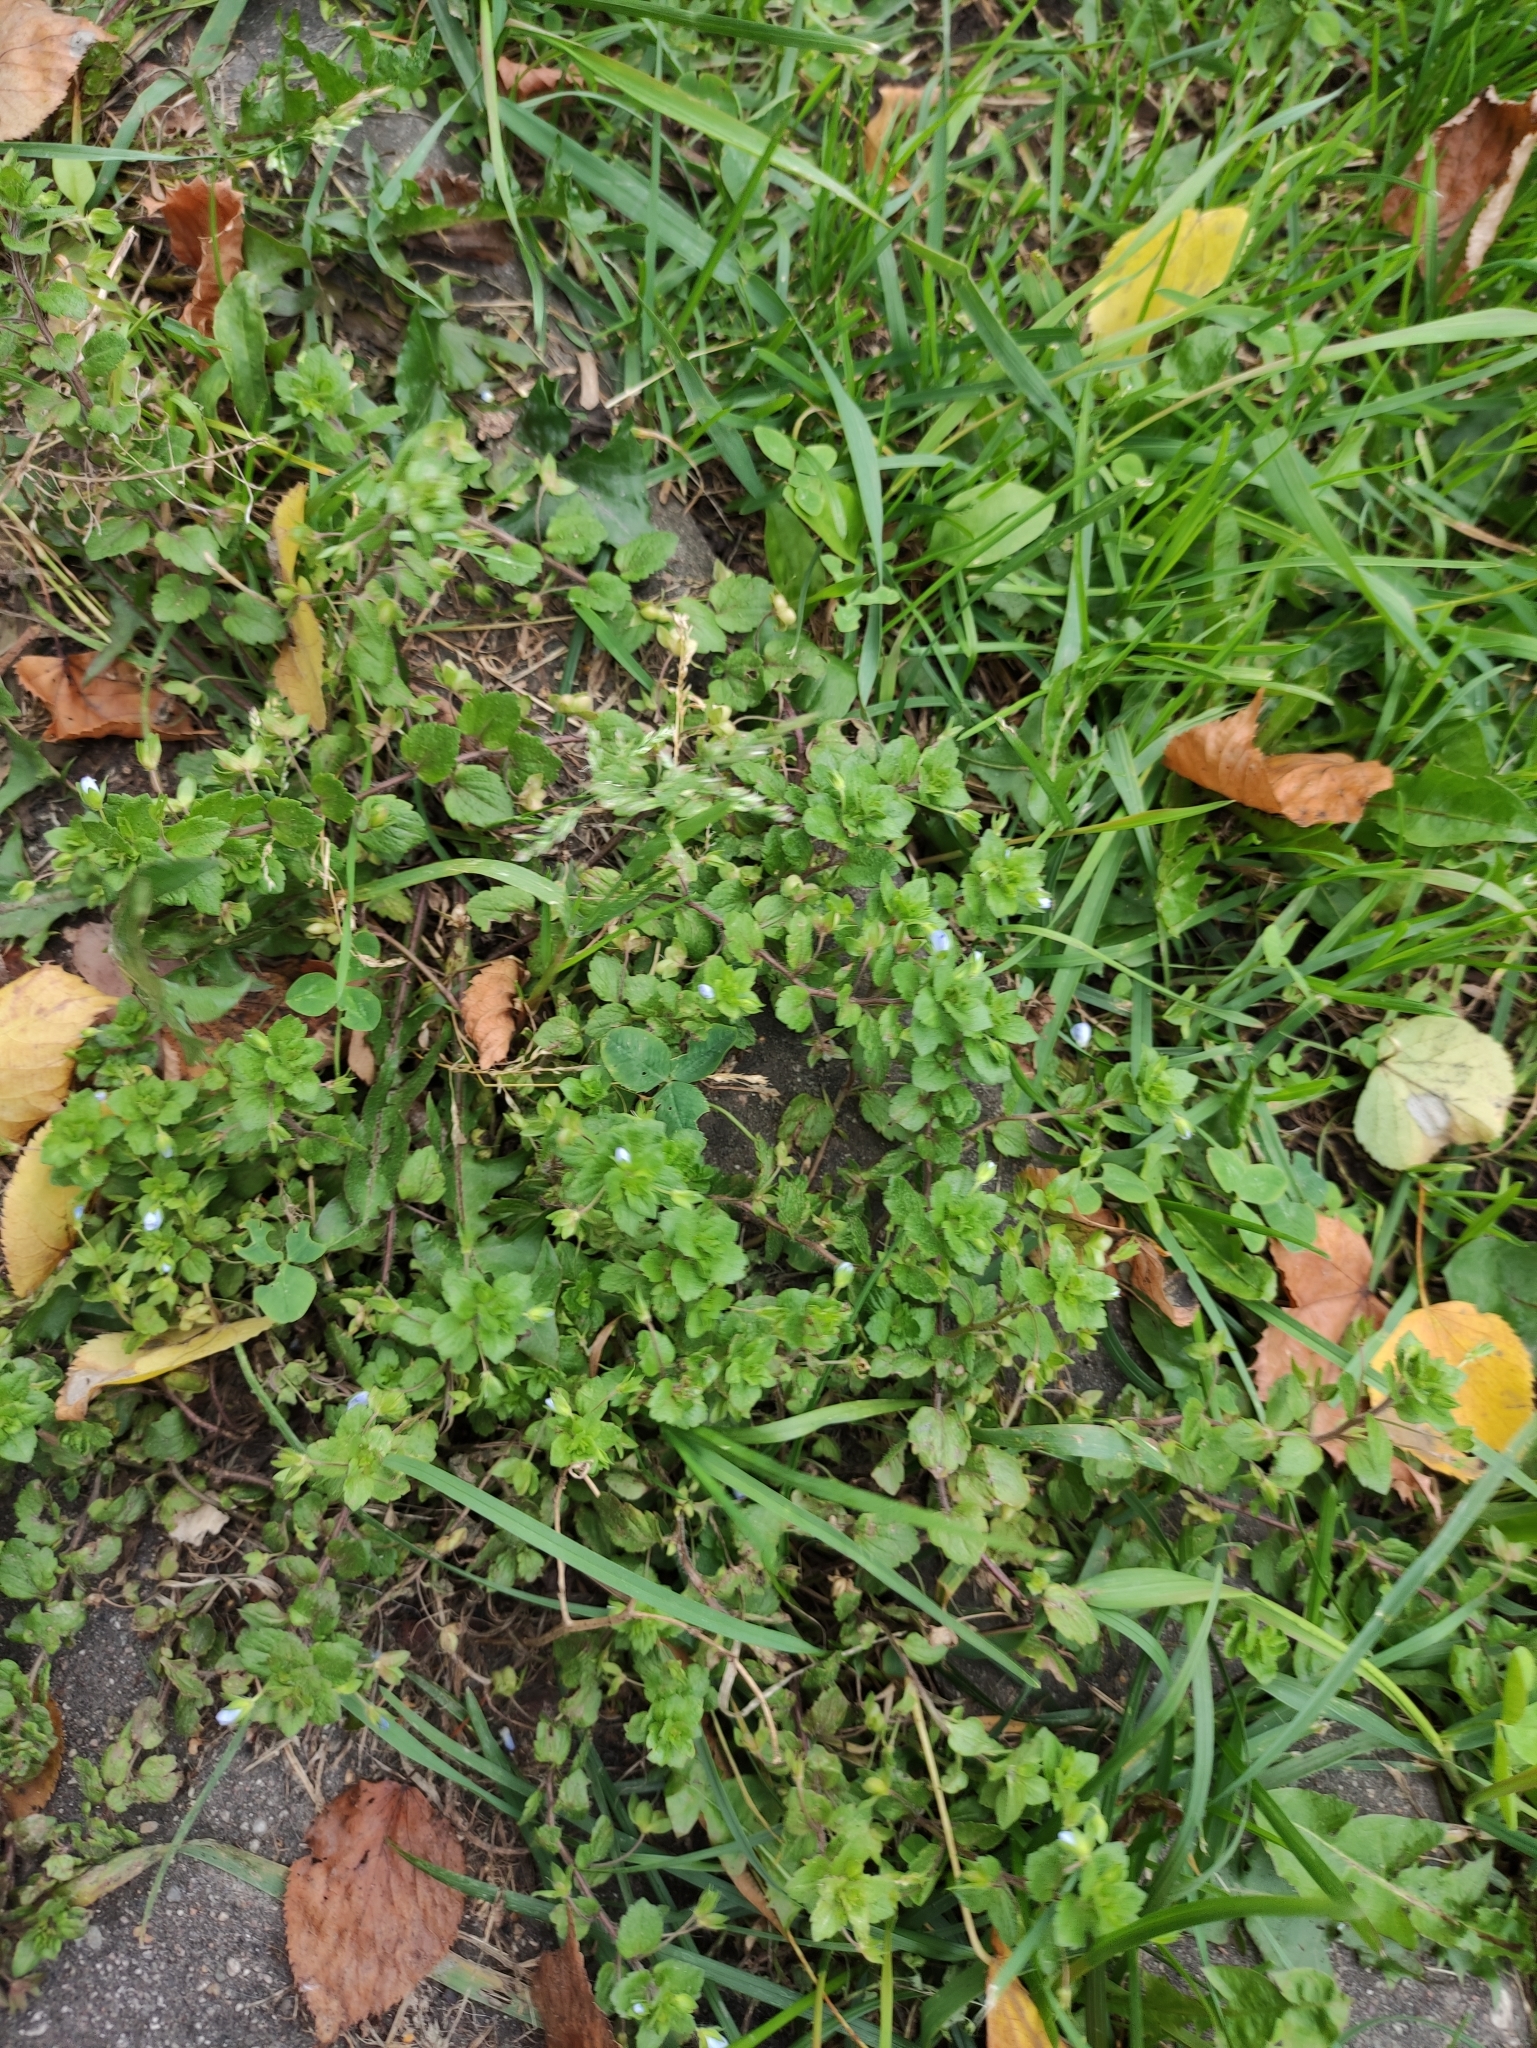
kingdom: Plantae
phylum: Tracheophyta
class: Magnoliopsida
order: Lamiales
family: Plantaginaceae
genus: Veronica
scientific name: Veronica persica
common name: Common field-speedwell
